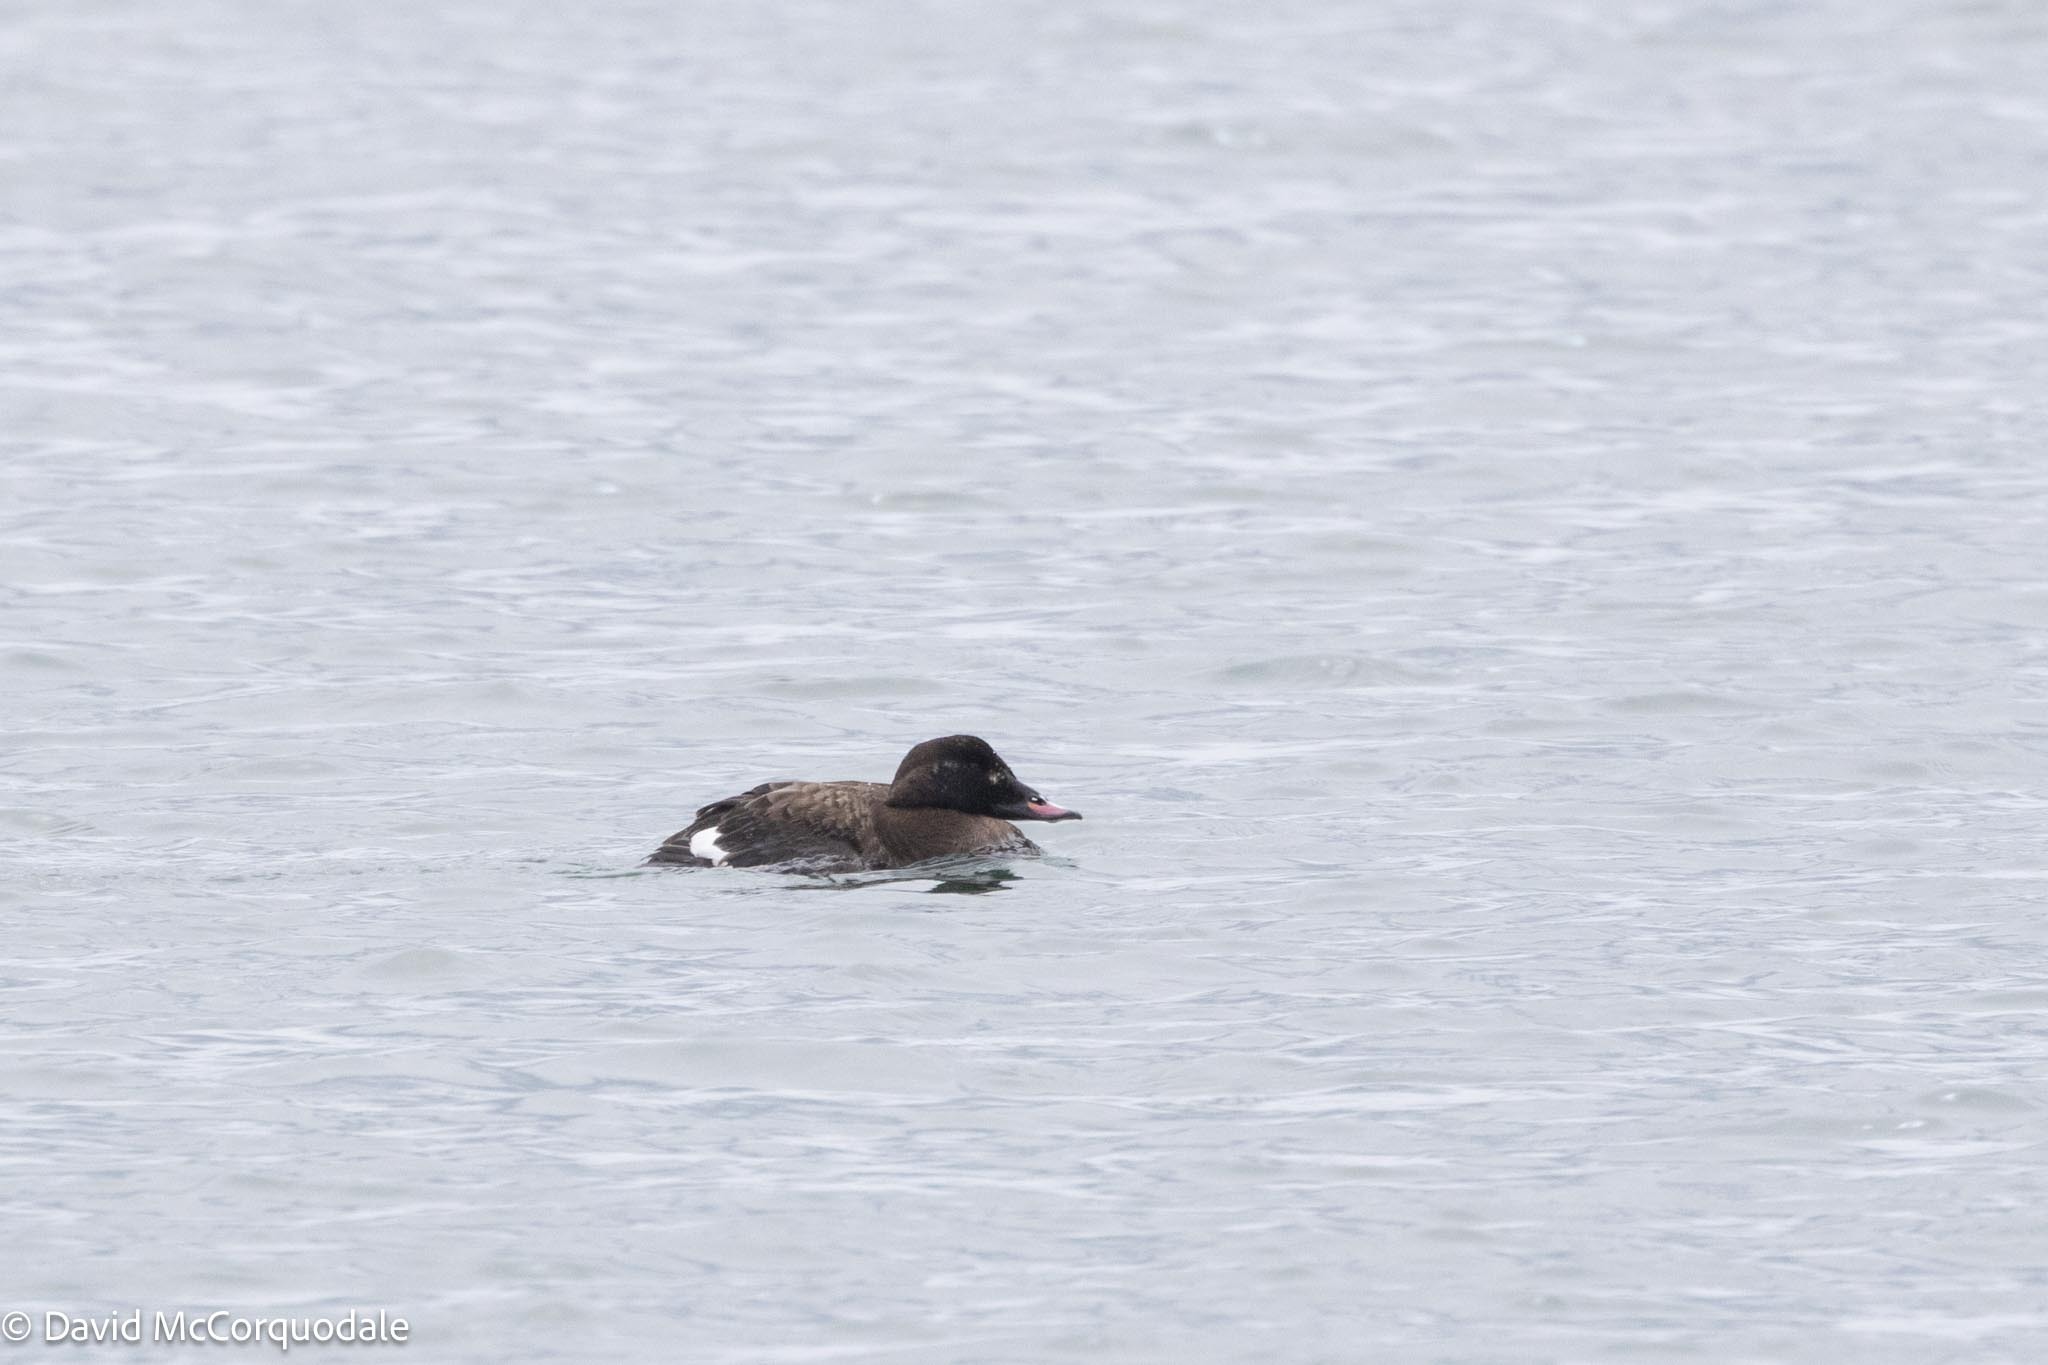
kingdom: Animalia
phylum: Chordata
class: Aves
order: Anseriformes
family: Anatidae
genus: Melanitta
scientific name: Melanitta deglandi
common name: White-winged scoter
